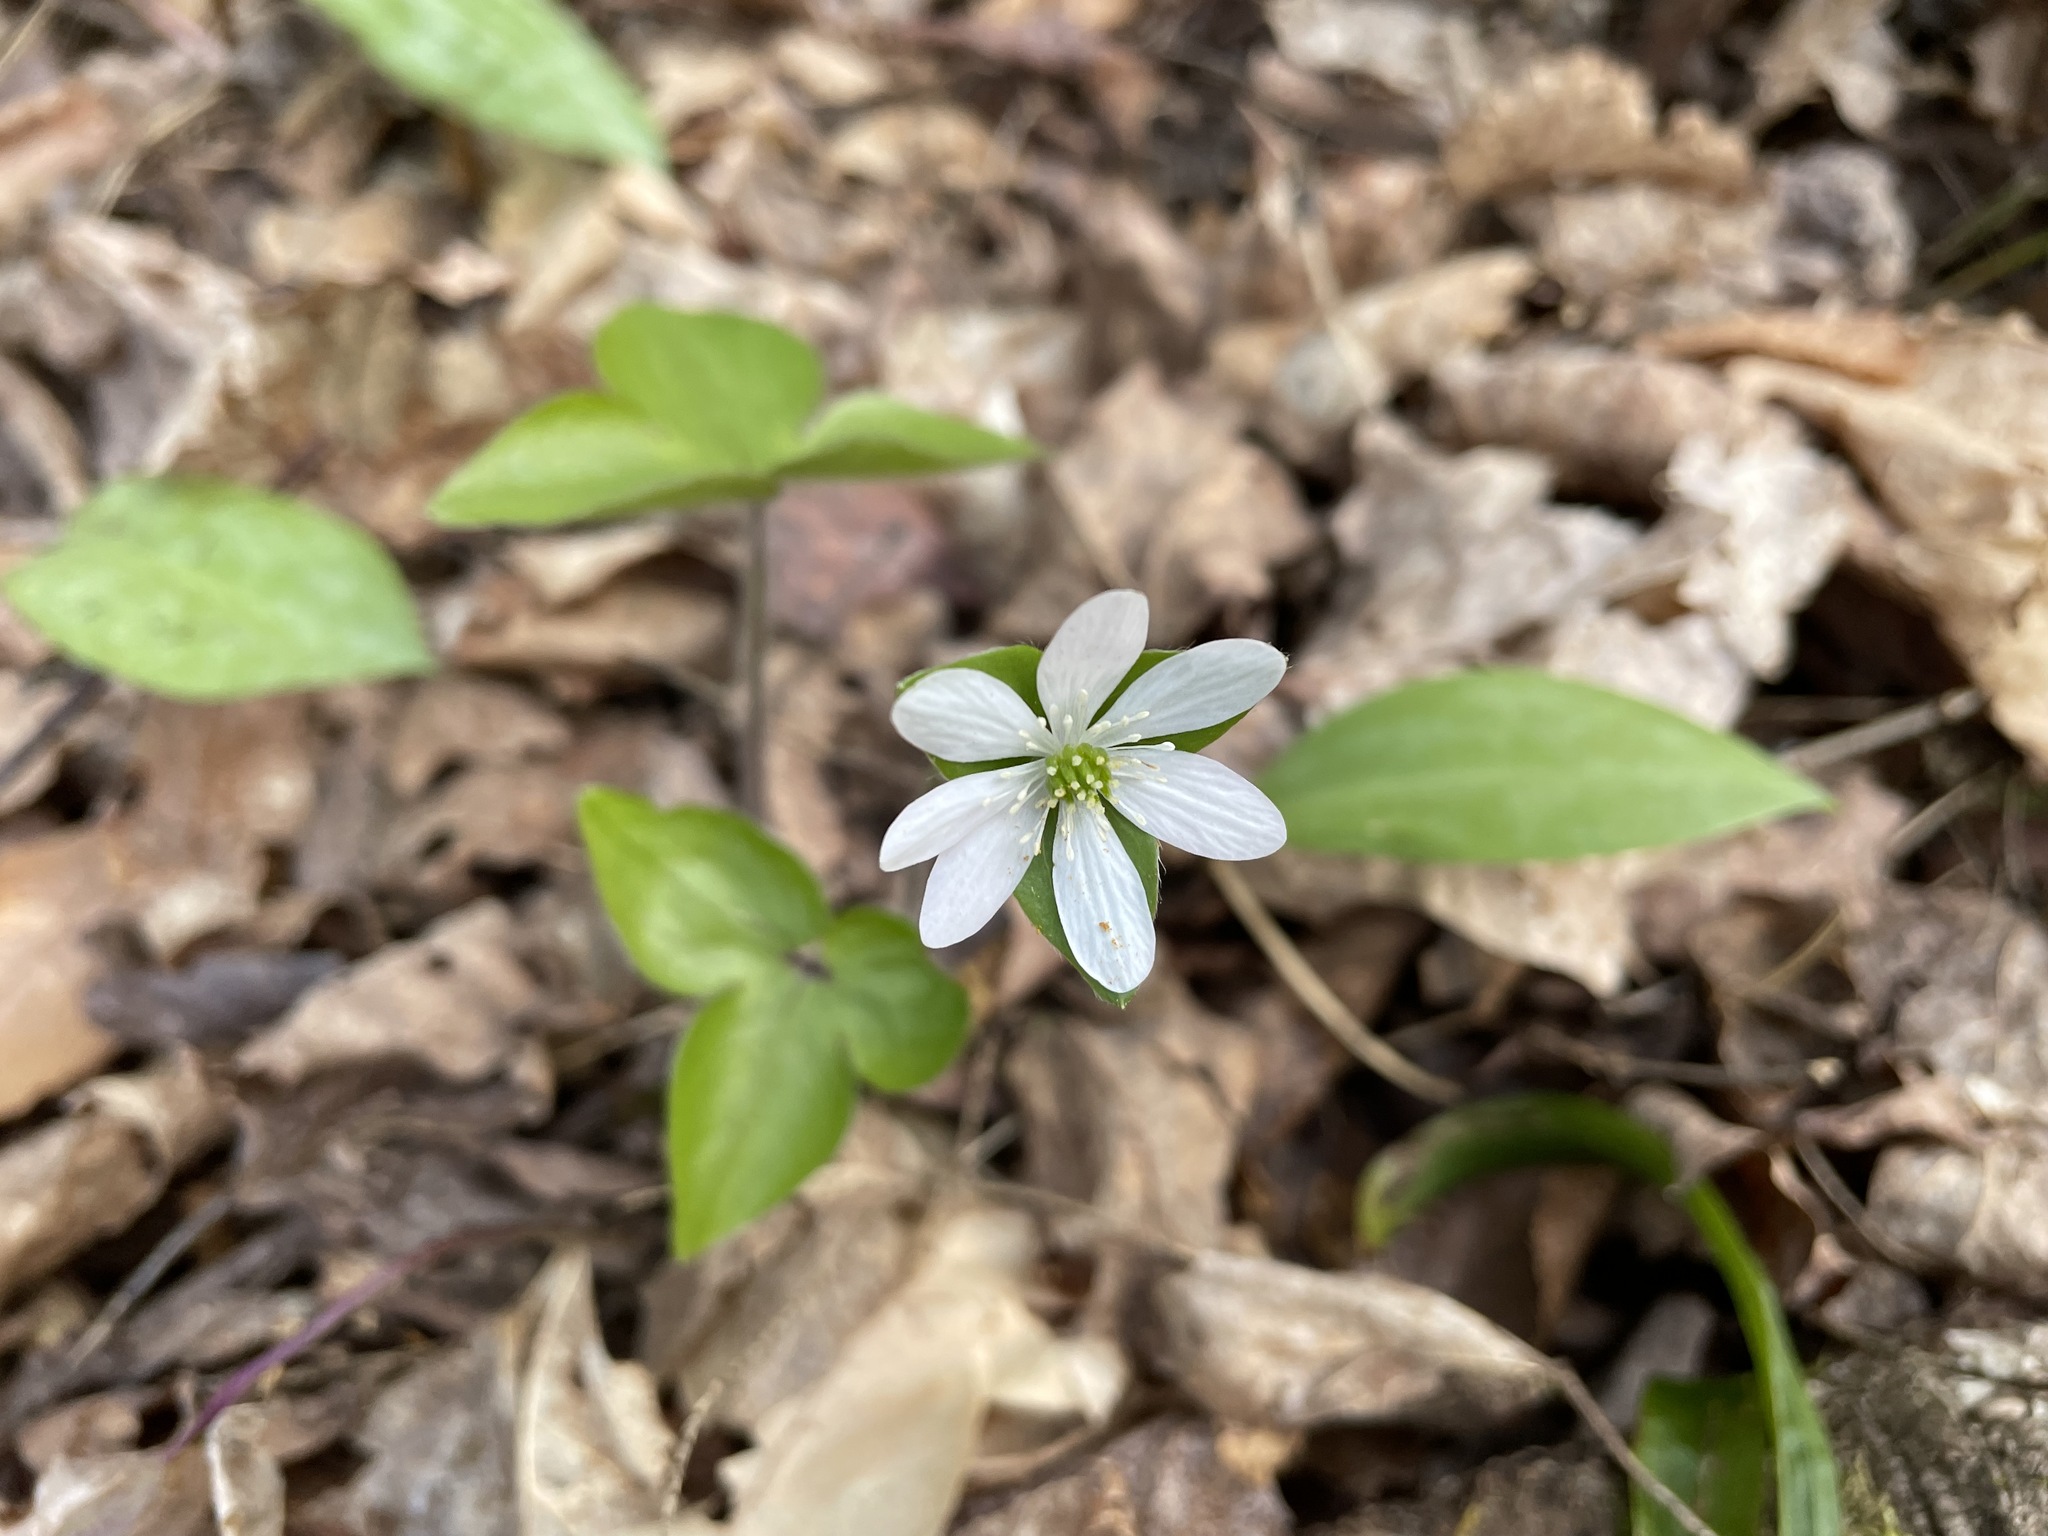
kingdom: Plantae
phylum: Tracheophyta
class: Magnoliopsida
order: Ranunculales
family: Ranunculaceae
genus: Hepatica
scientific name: Hepatica acutiloba
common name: Sharp-lobed hepatica
